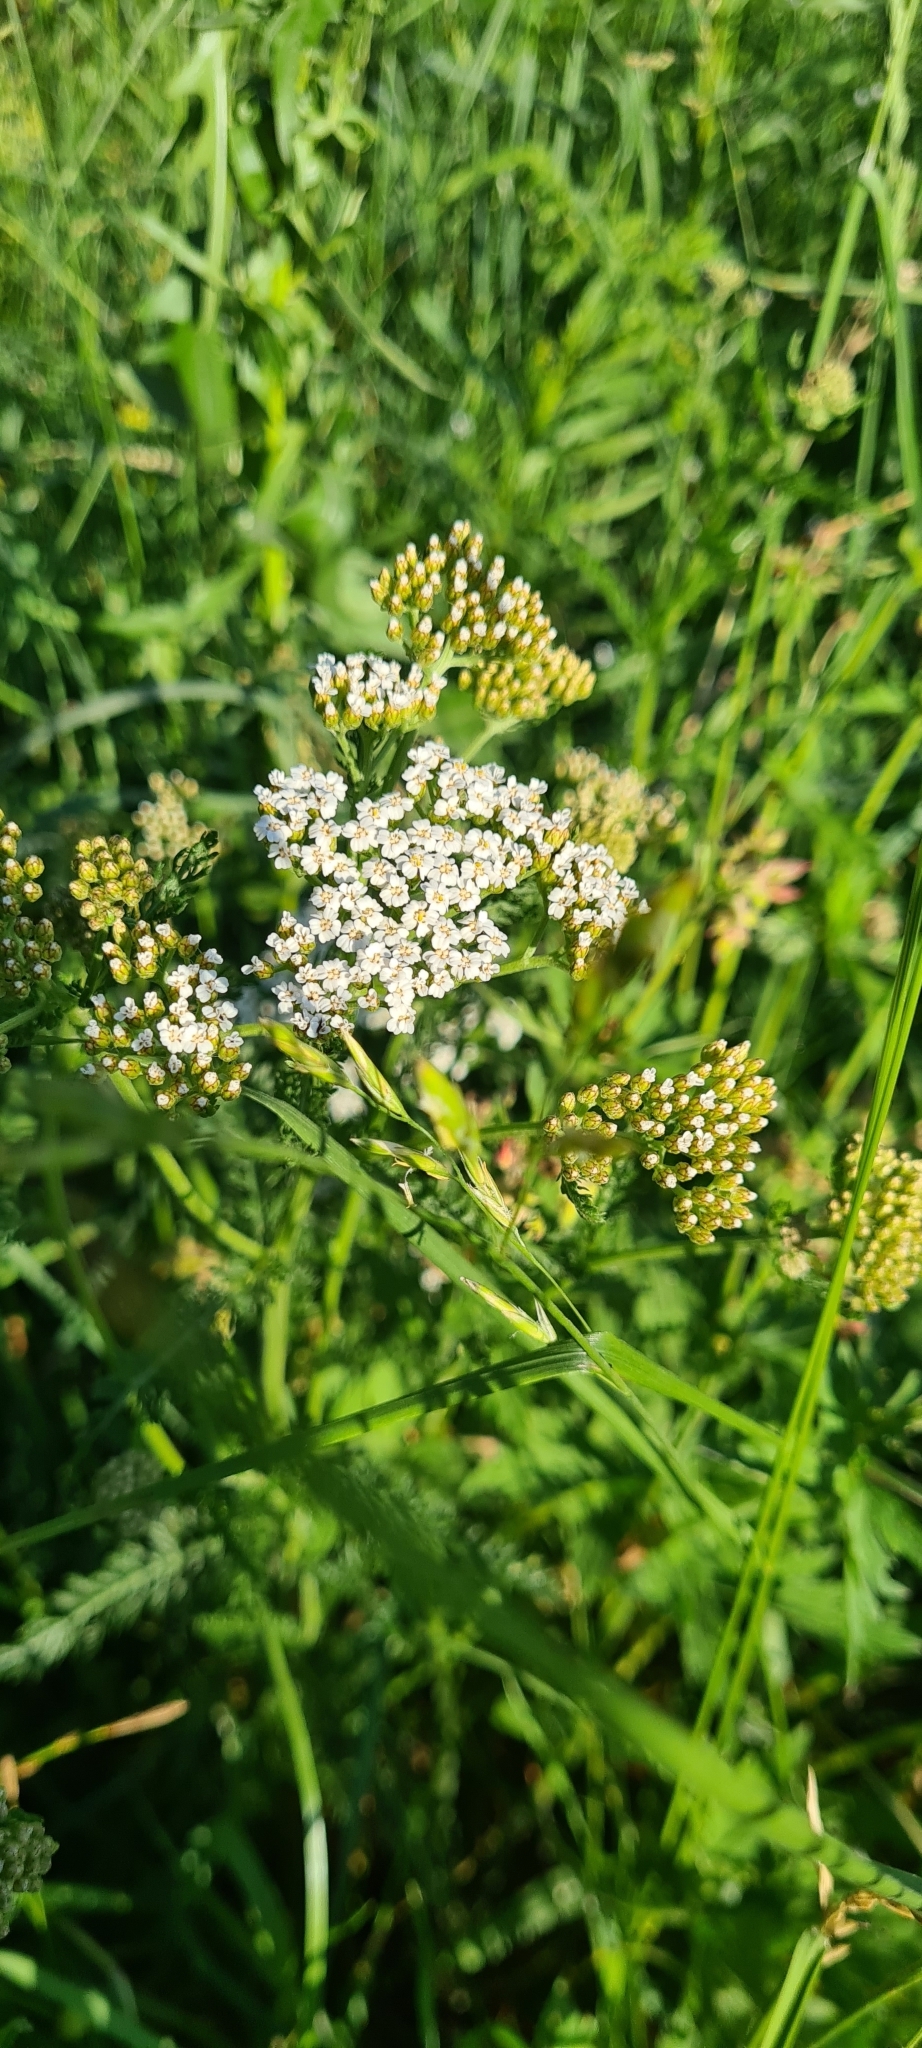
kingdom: Plantae
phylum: Tracheophyta
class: Magnoliopsida
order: Asterales
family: Asteraceae
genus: Achillea
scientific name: Achillea millefolium
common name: Yarrow
